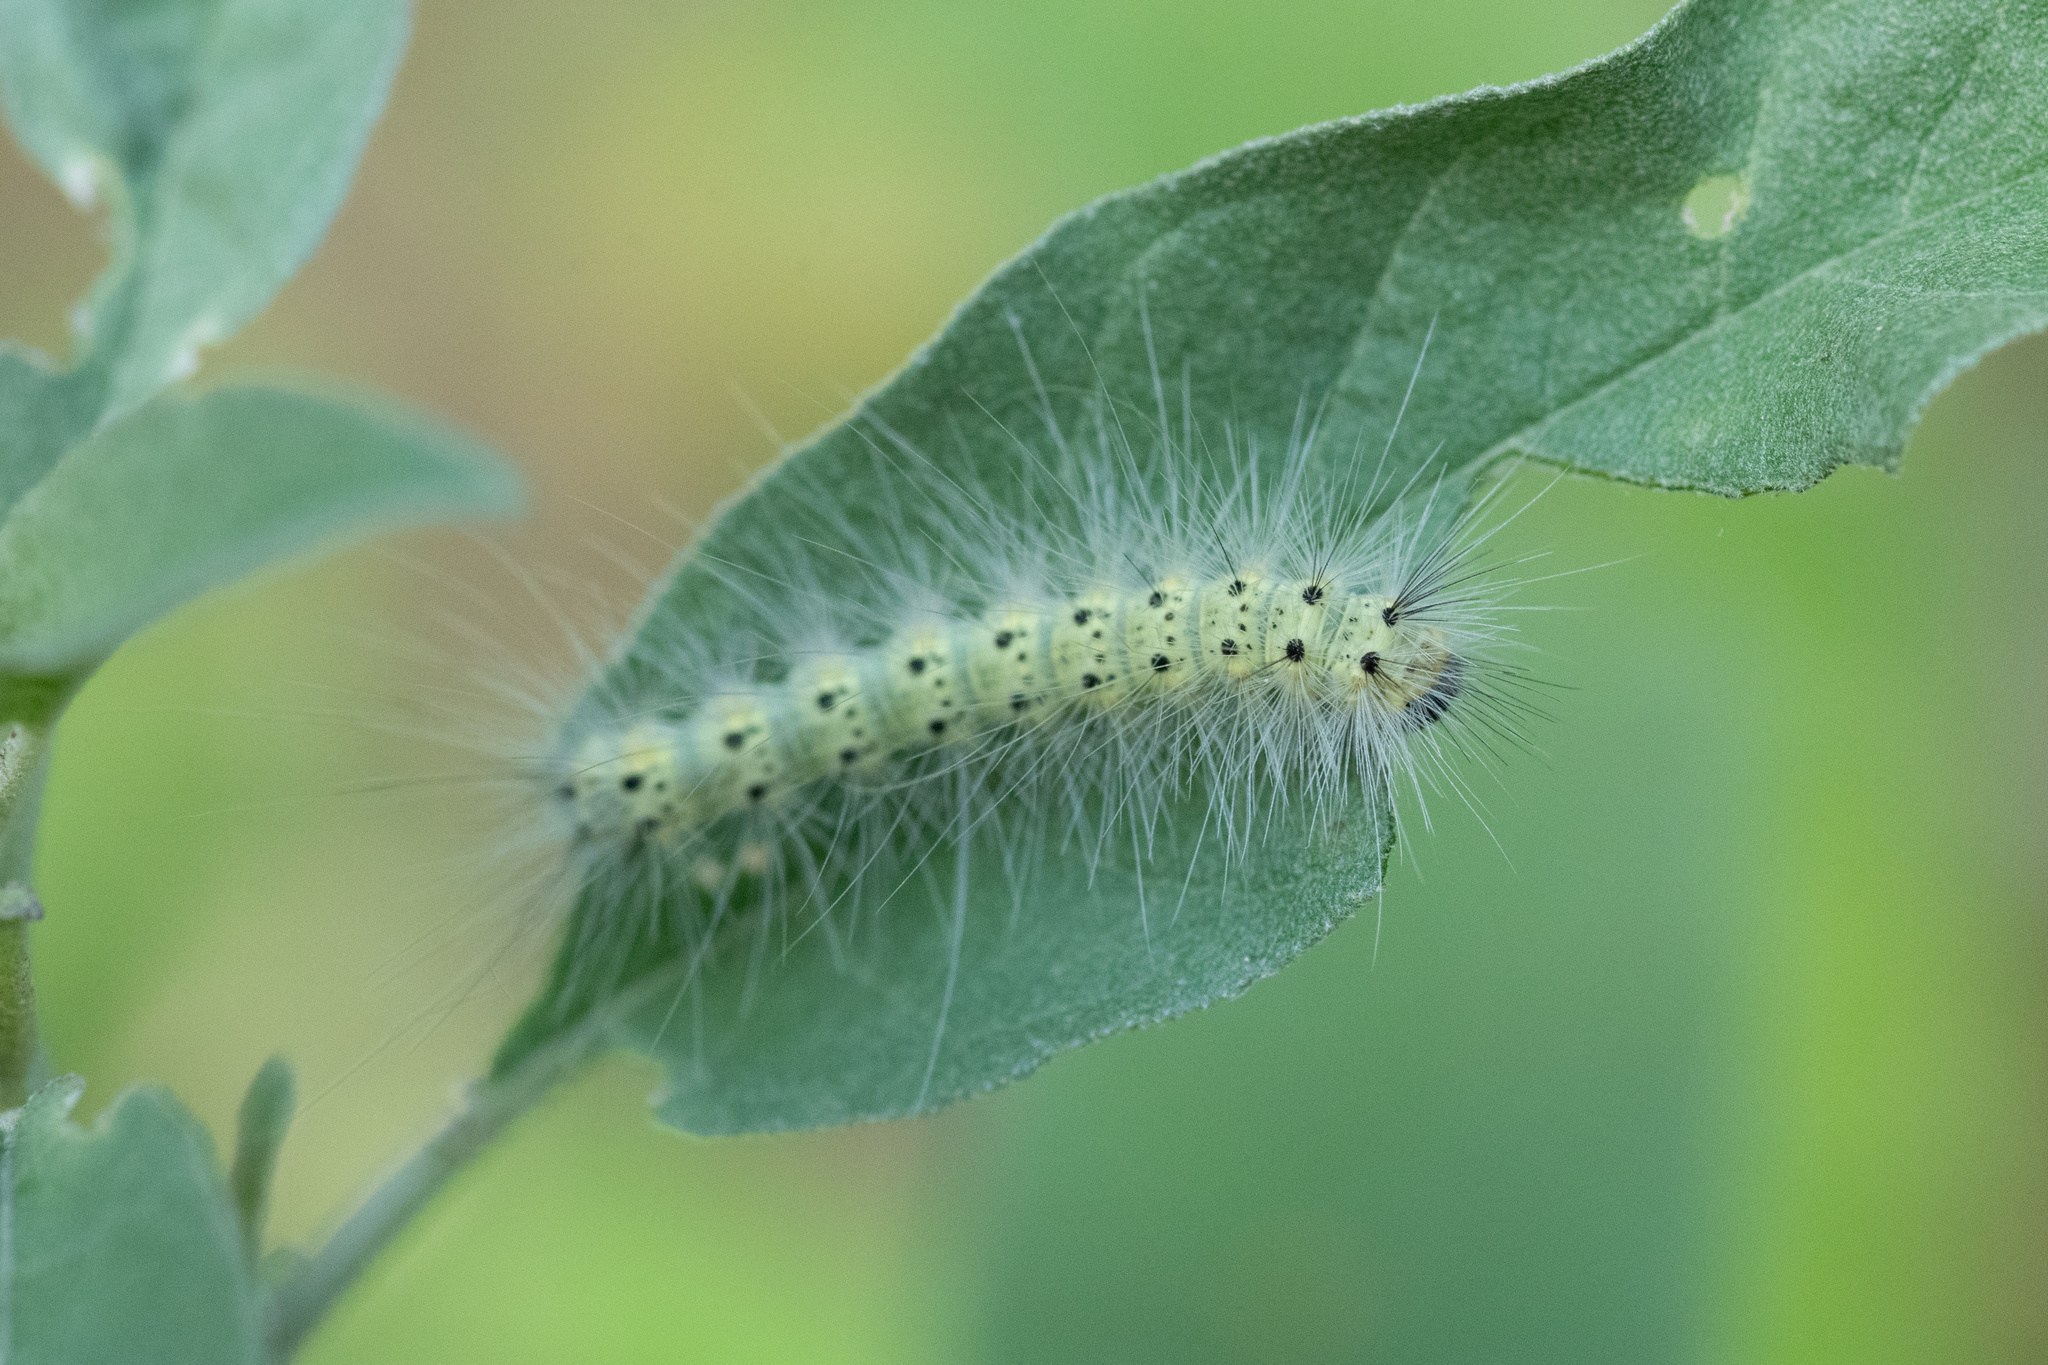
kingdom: Animalia
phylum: Arthropoda
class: Insecta
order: Lepidoptera
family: Erebidae
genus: Hyphantria
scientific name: Hyphantria cunea
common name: American white moth
